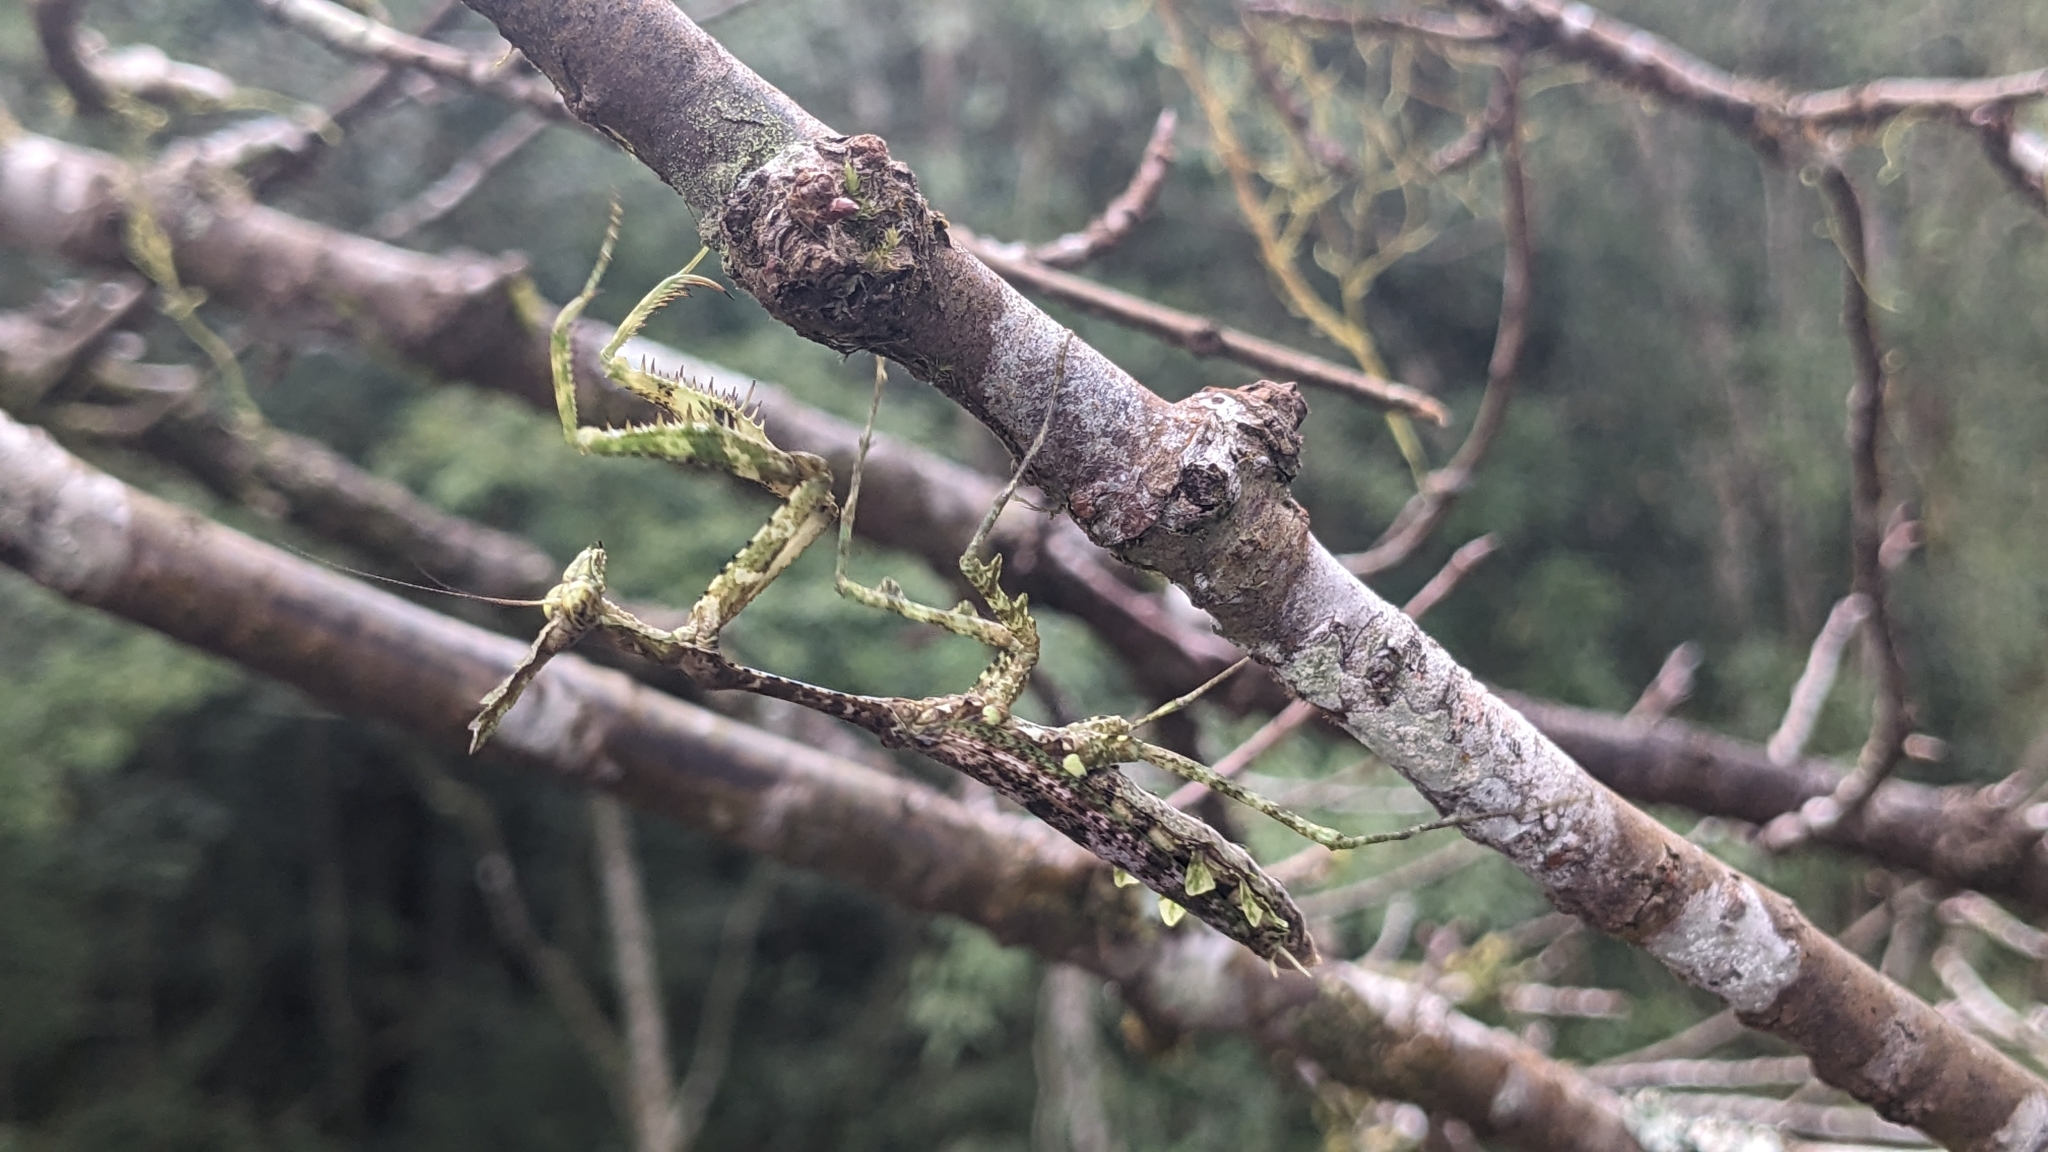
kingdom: Animalia
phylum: Arthropoda
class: Insecta
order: Mantodea
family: Hymenopodidae
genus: Phyllothelys
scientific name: Phyllothelys cornutus
